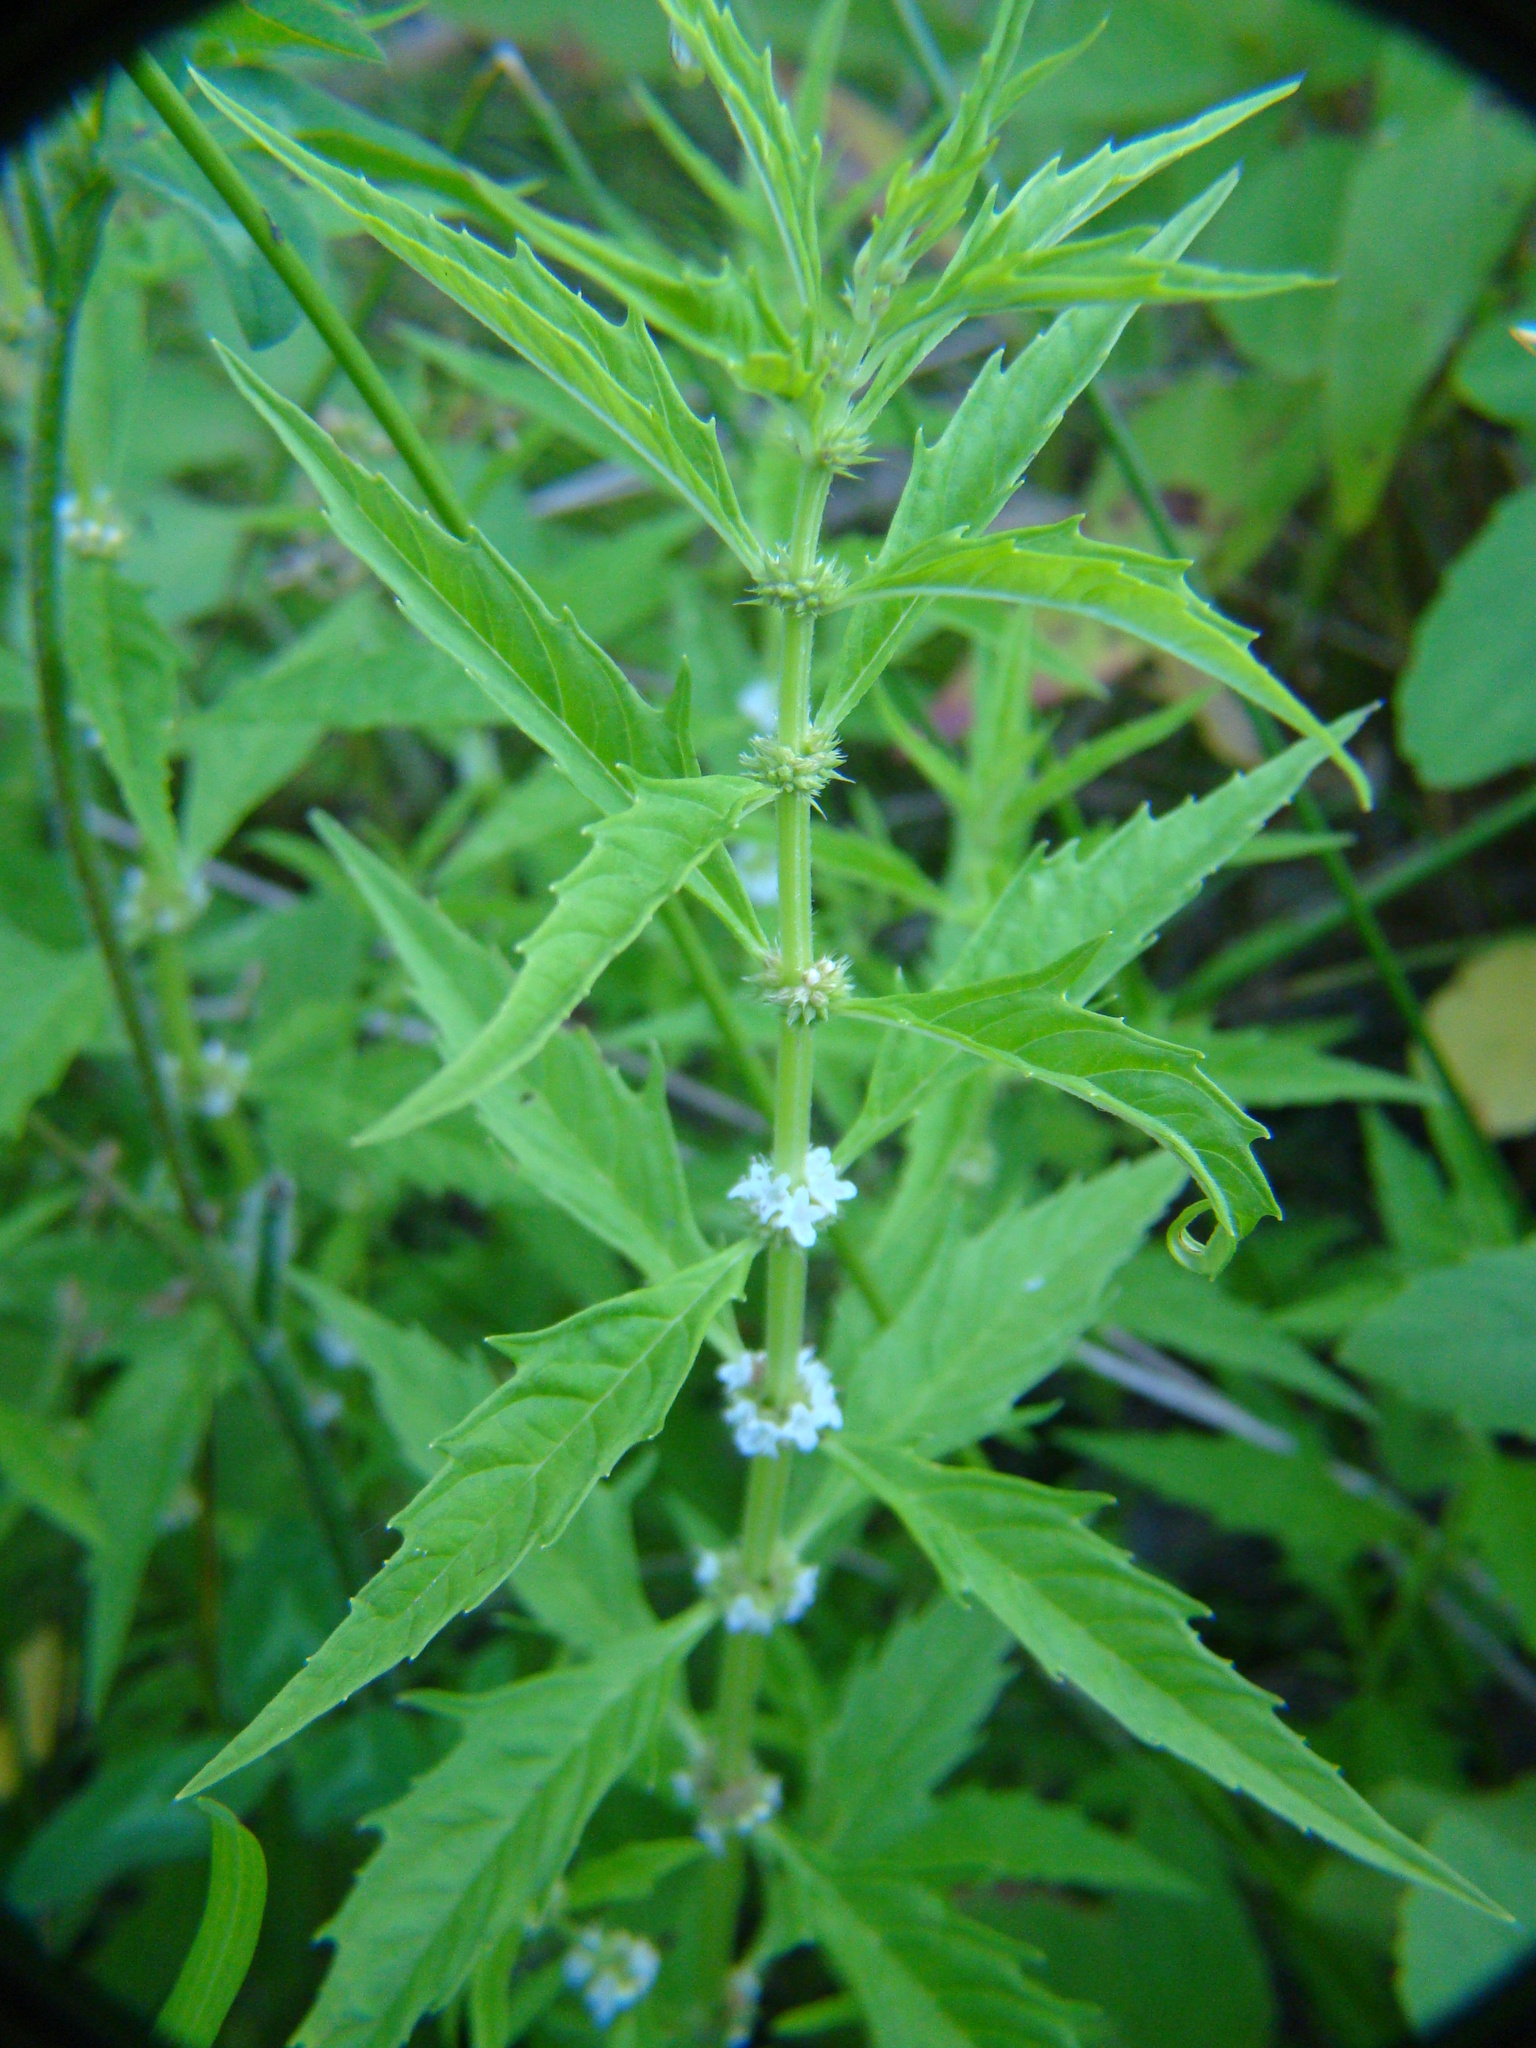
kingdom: Plantae
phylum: Tracheophyta
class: Magnoliopsida
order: Lamiales
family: Lamiaceae
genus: Lycopus
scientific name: Lycopus americanus
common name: American bugleweed
